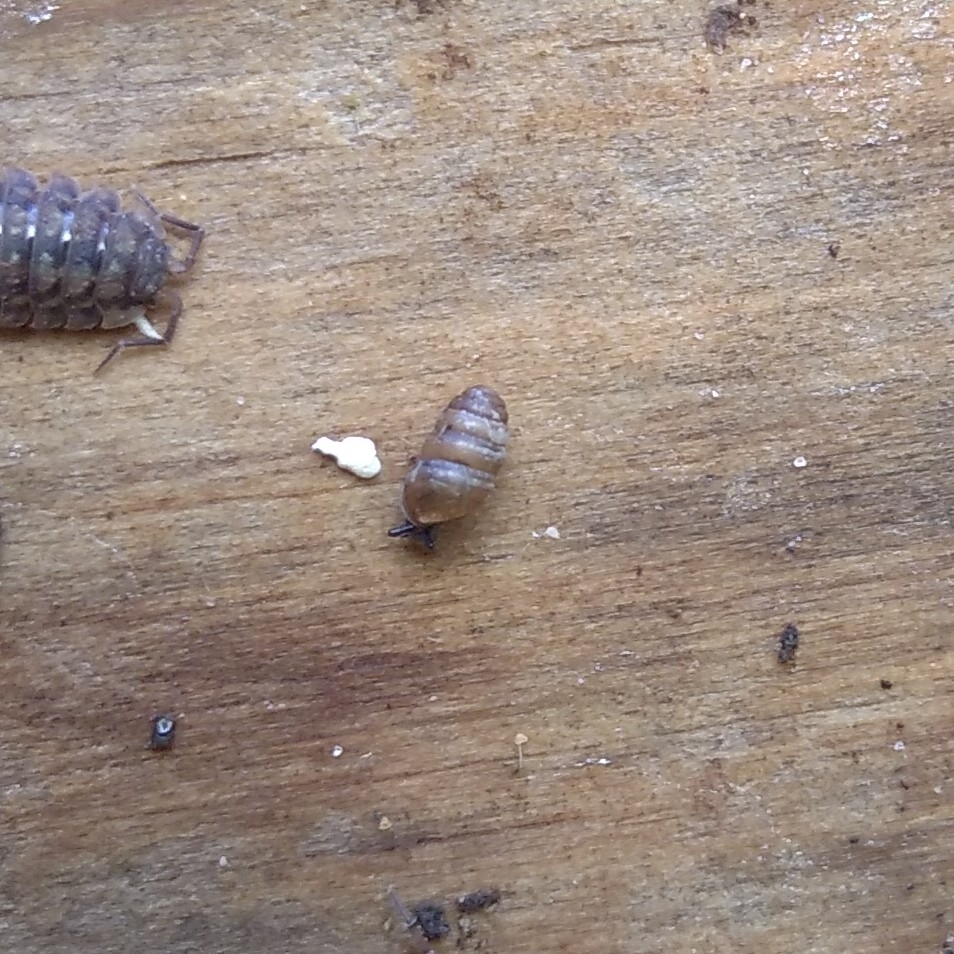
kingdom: Animalia
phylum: Mollusca
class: Gastropoda
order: Stylommatophora
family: Lauriidae
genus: Lauria
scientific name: Lauria cylindracea
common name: Common chrysalis snail
